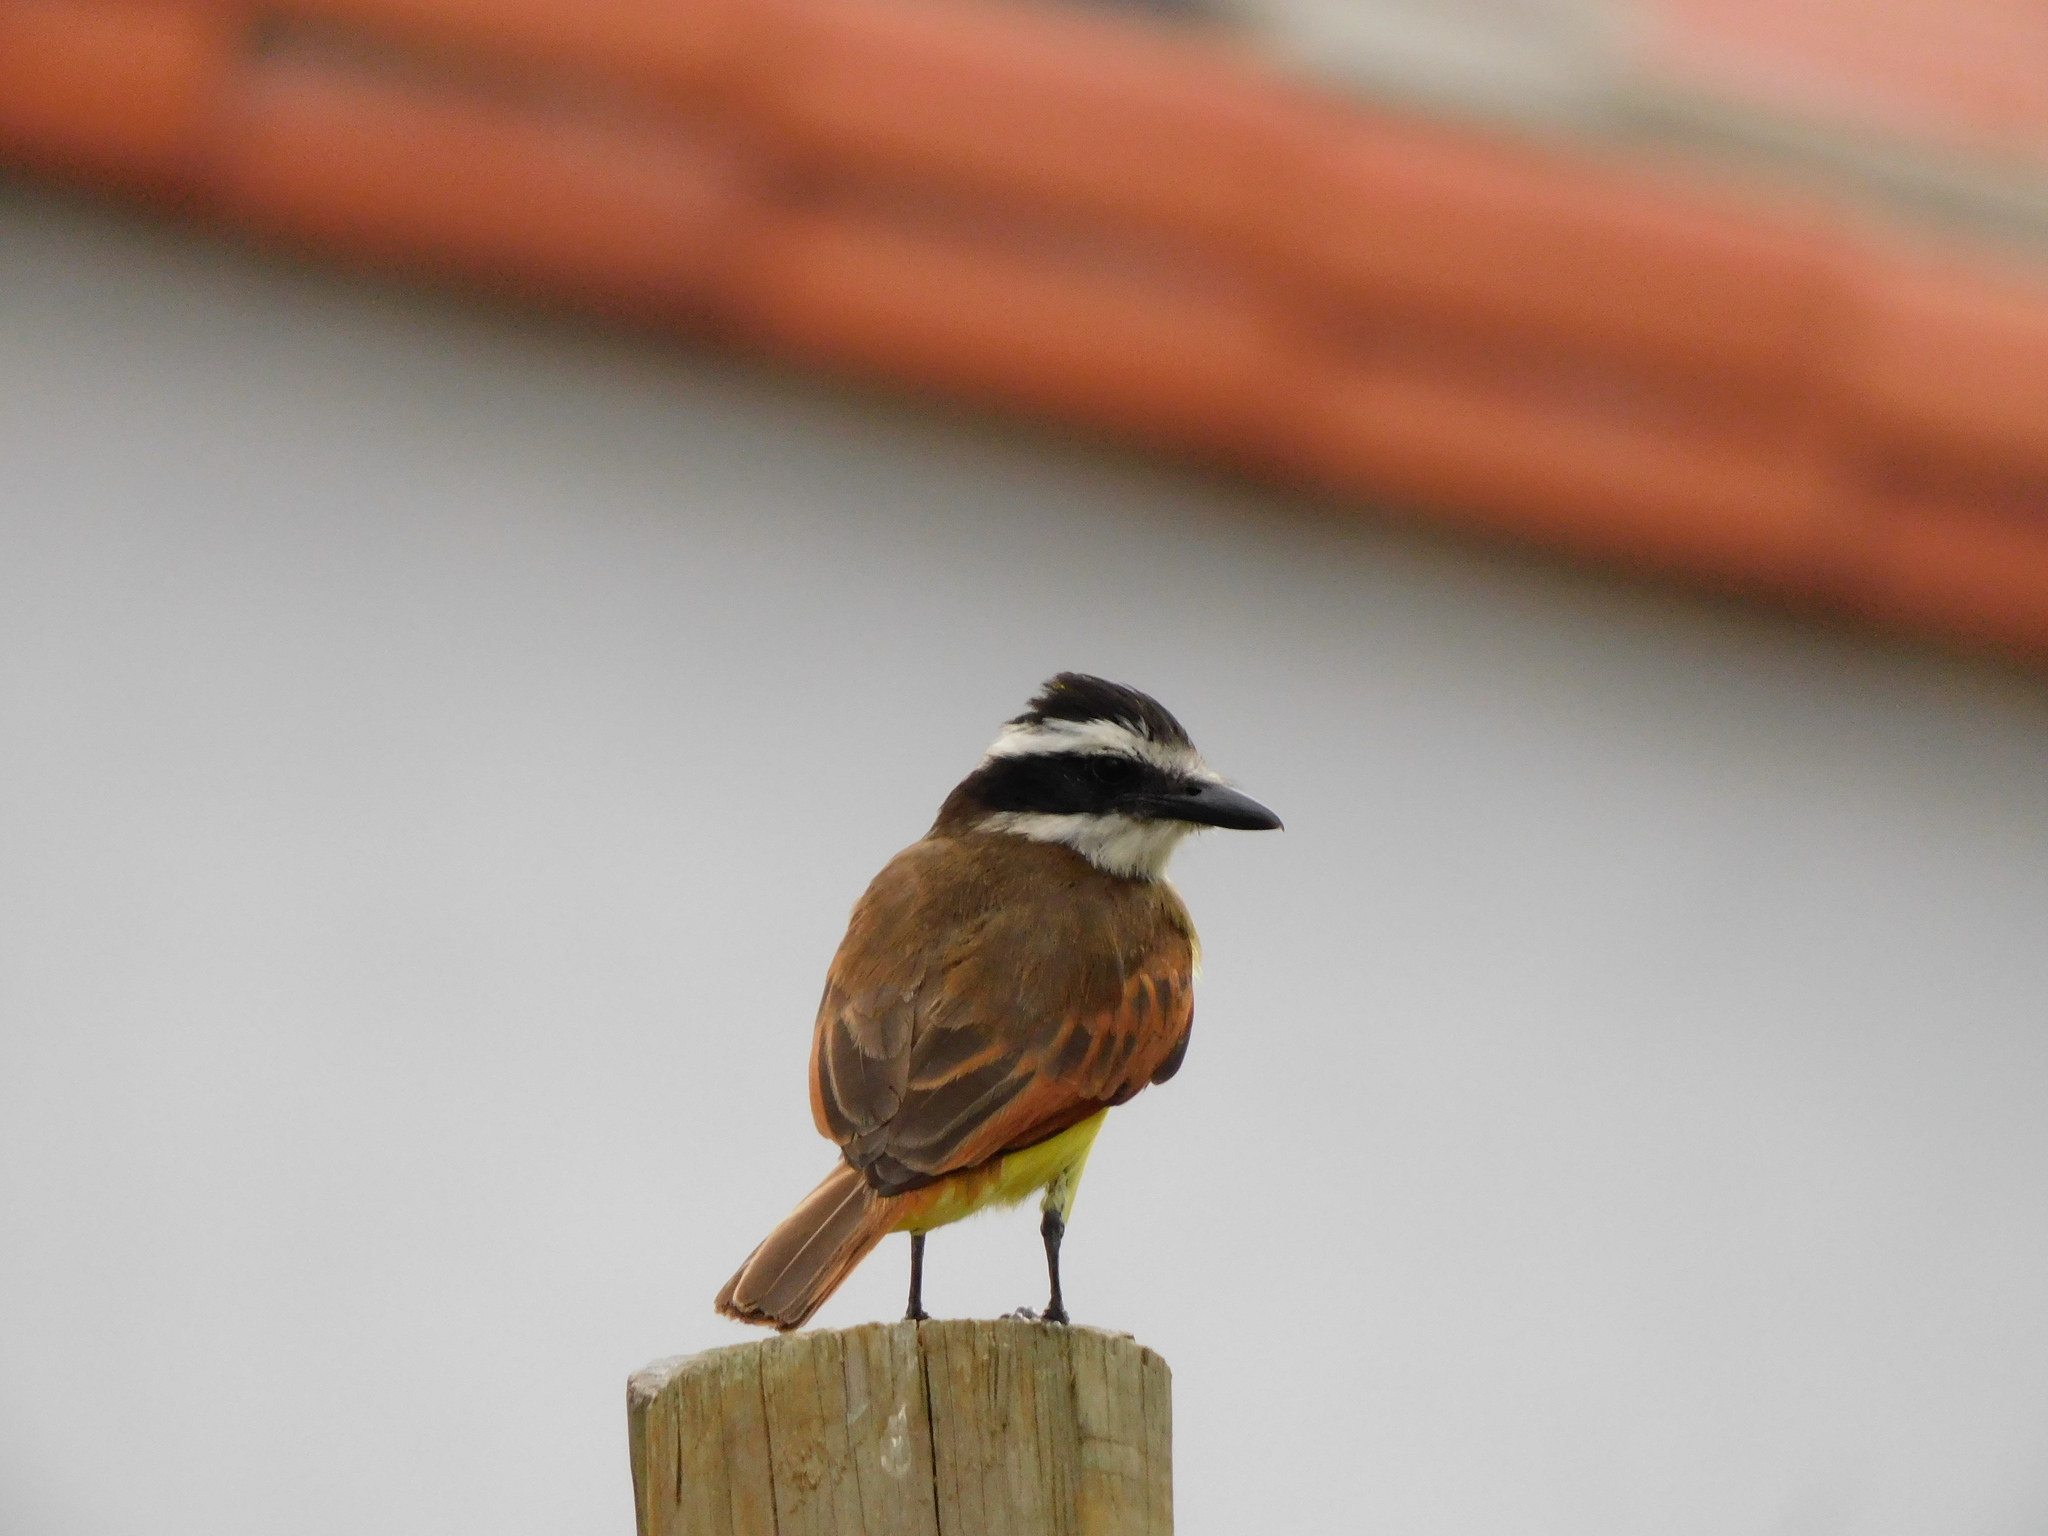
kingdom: Animalia
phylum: Chordata
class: Aves
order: Passeriformes
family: Tyrannidae
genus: Pitangus
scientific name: Pitangus sulphuratus
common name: Great kiskadee
